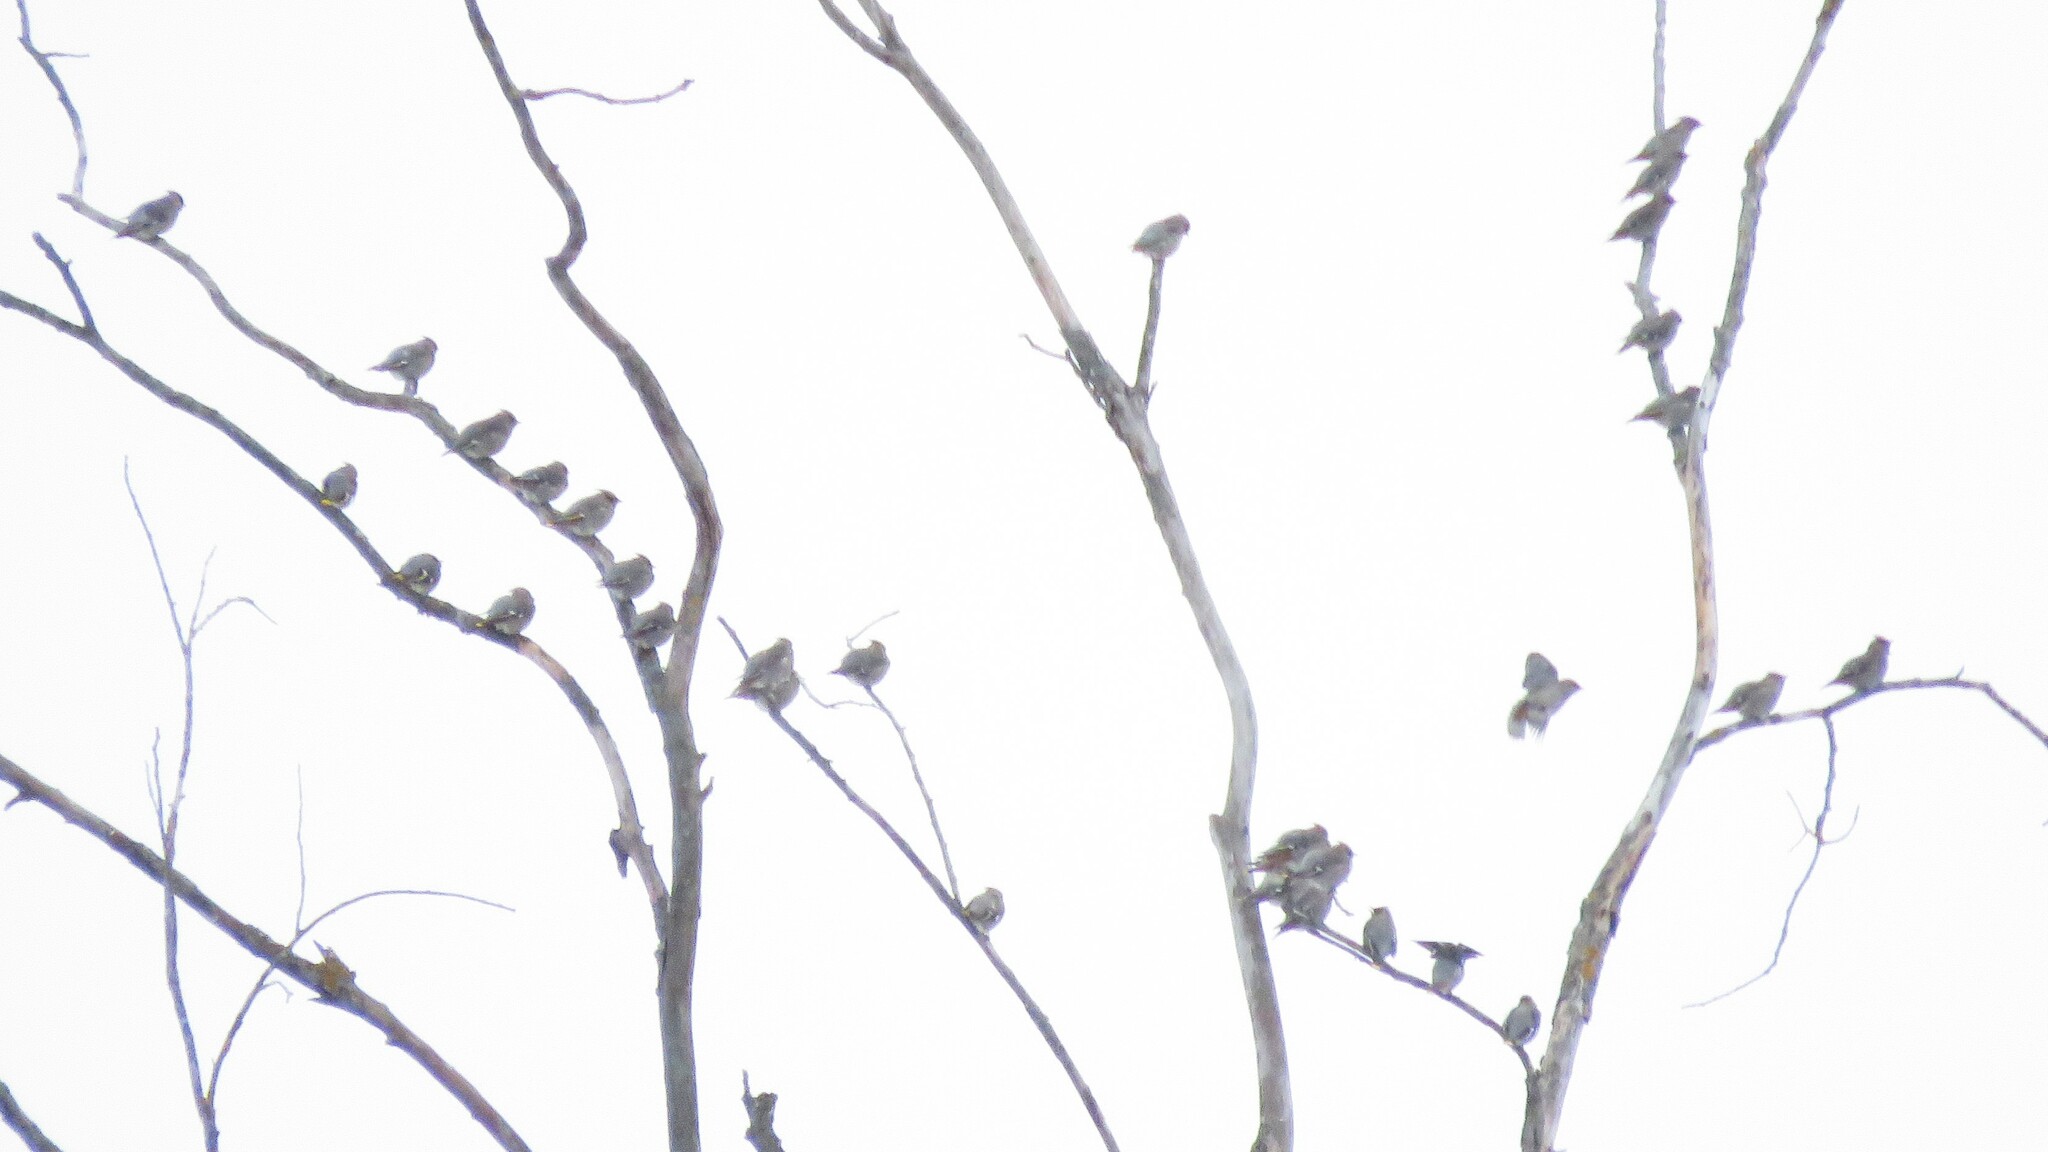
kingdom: Animalia
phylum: Chordata
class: Aves
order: Passeriformes
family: Bombycillidae
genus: Bombycilla
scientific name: Bombycilla garrulus
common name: Bohemian waxwing
